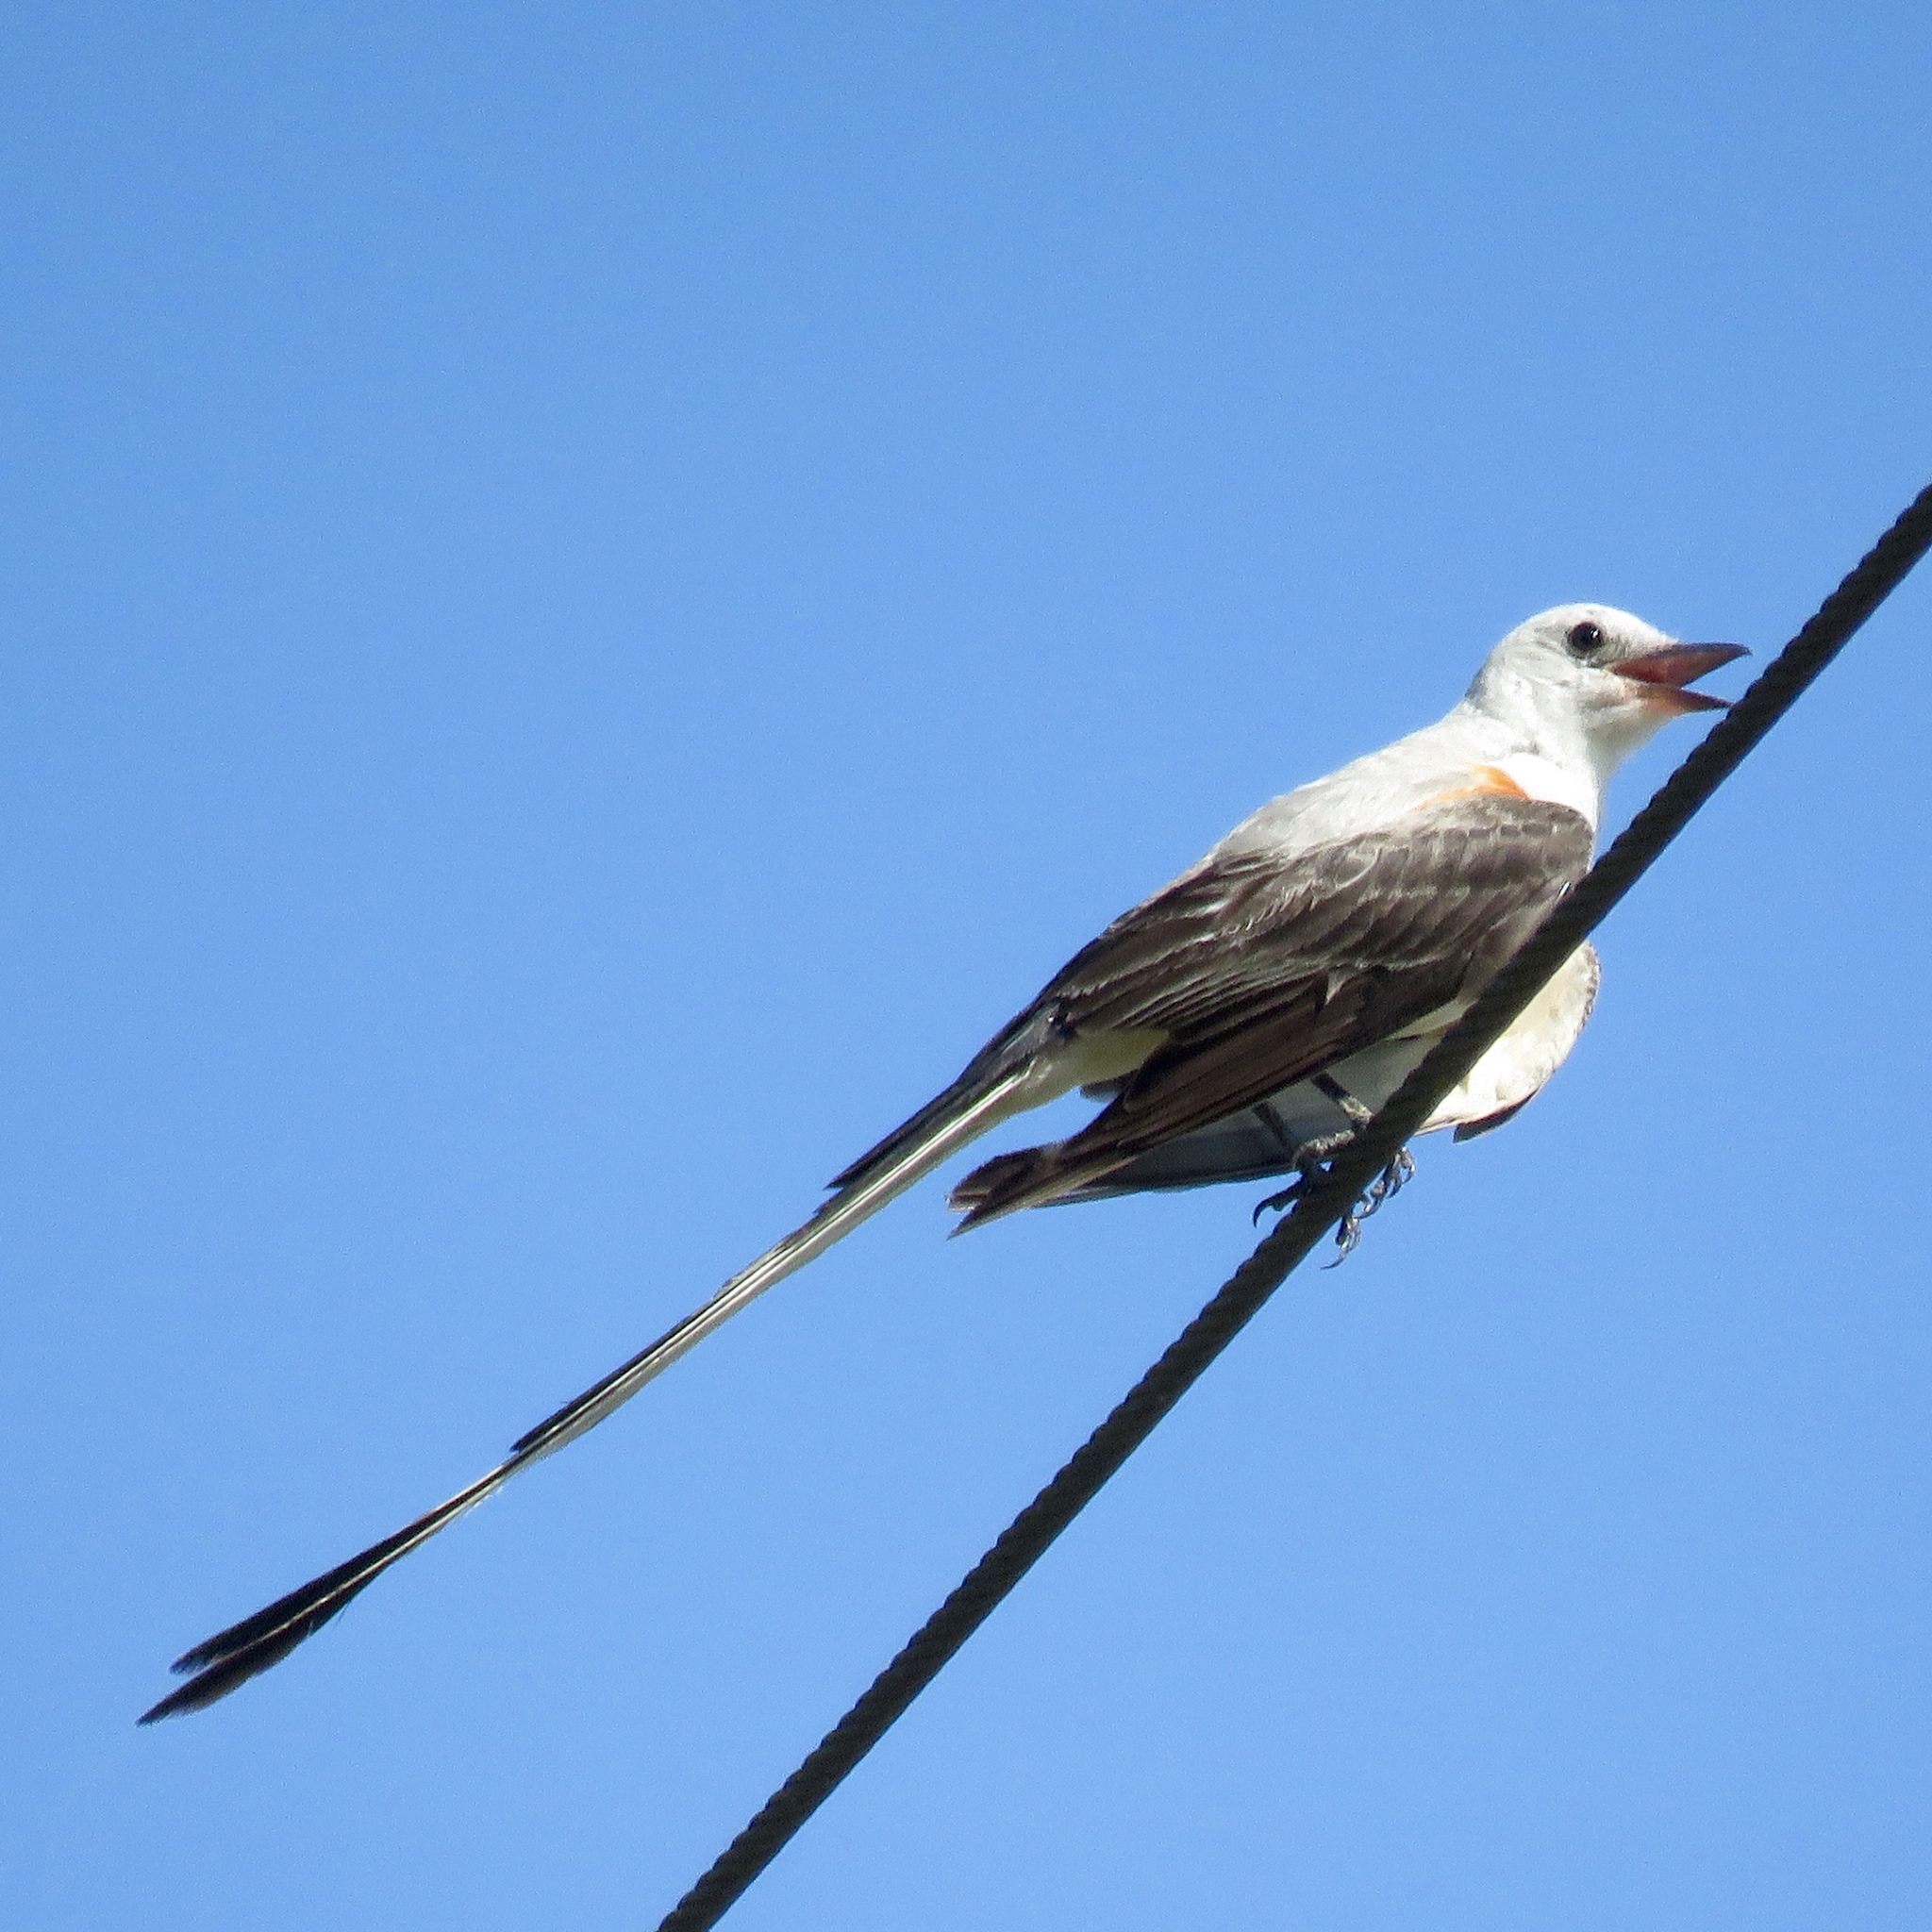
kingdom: Animalia
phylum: Chordata
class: Aves
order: Passeriformes
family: Tyrannidae
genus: Tyrannus
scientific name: Tyrannus forficatus
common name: Scissor-tailed flycatcher
